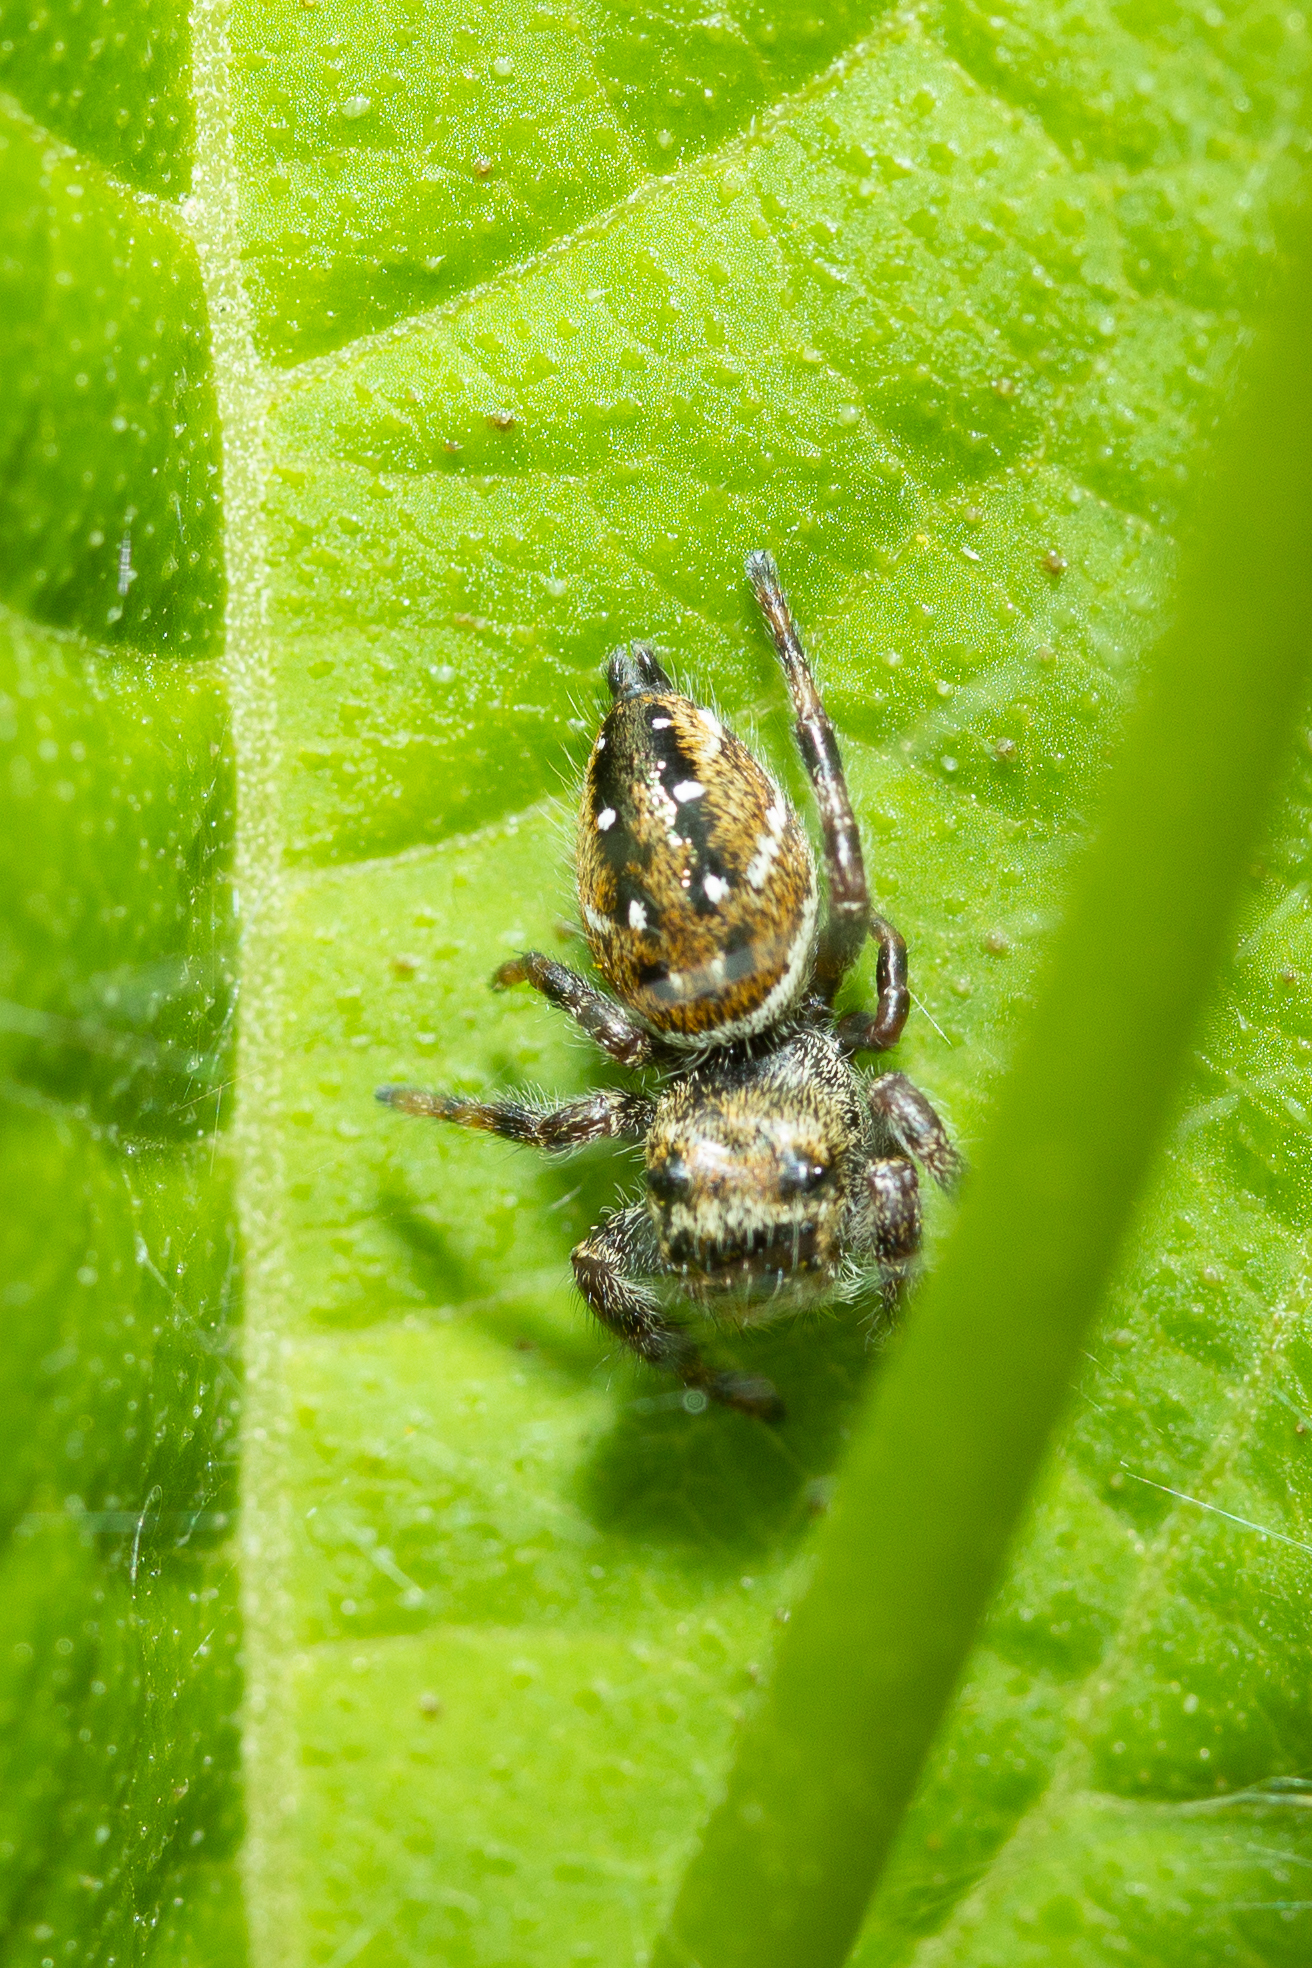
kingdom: Animalia
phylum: Arthropoda
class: Arachnida
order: Araneae
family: Salticidae
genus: Phidippus
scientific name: Phidippus clarus
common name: Brilliant jumping spider
